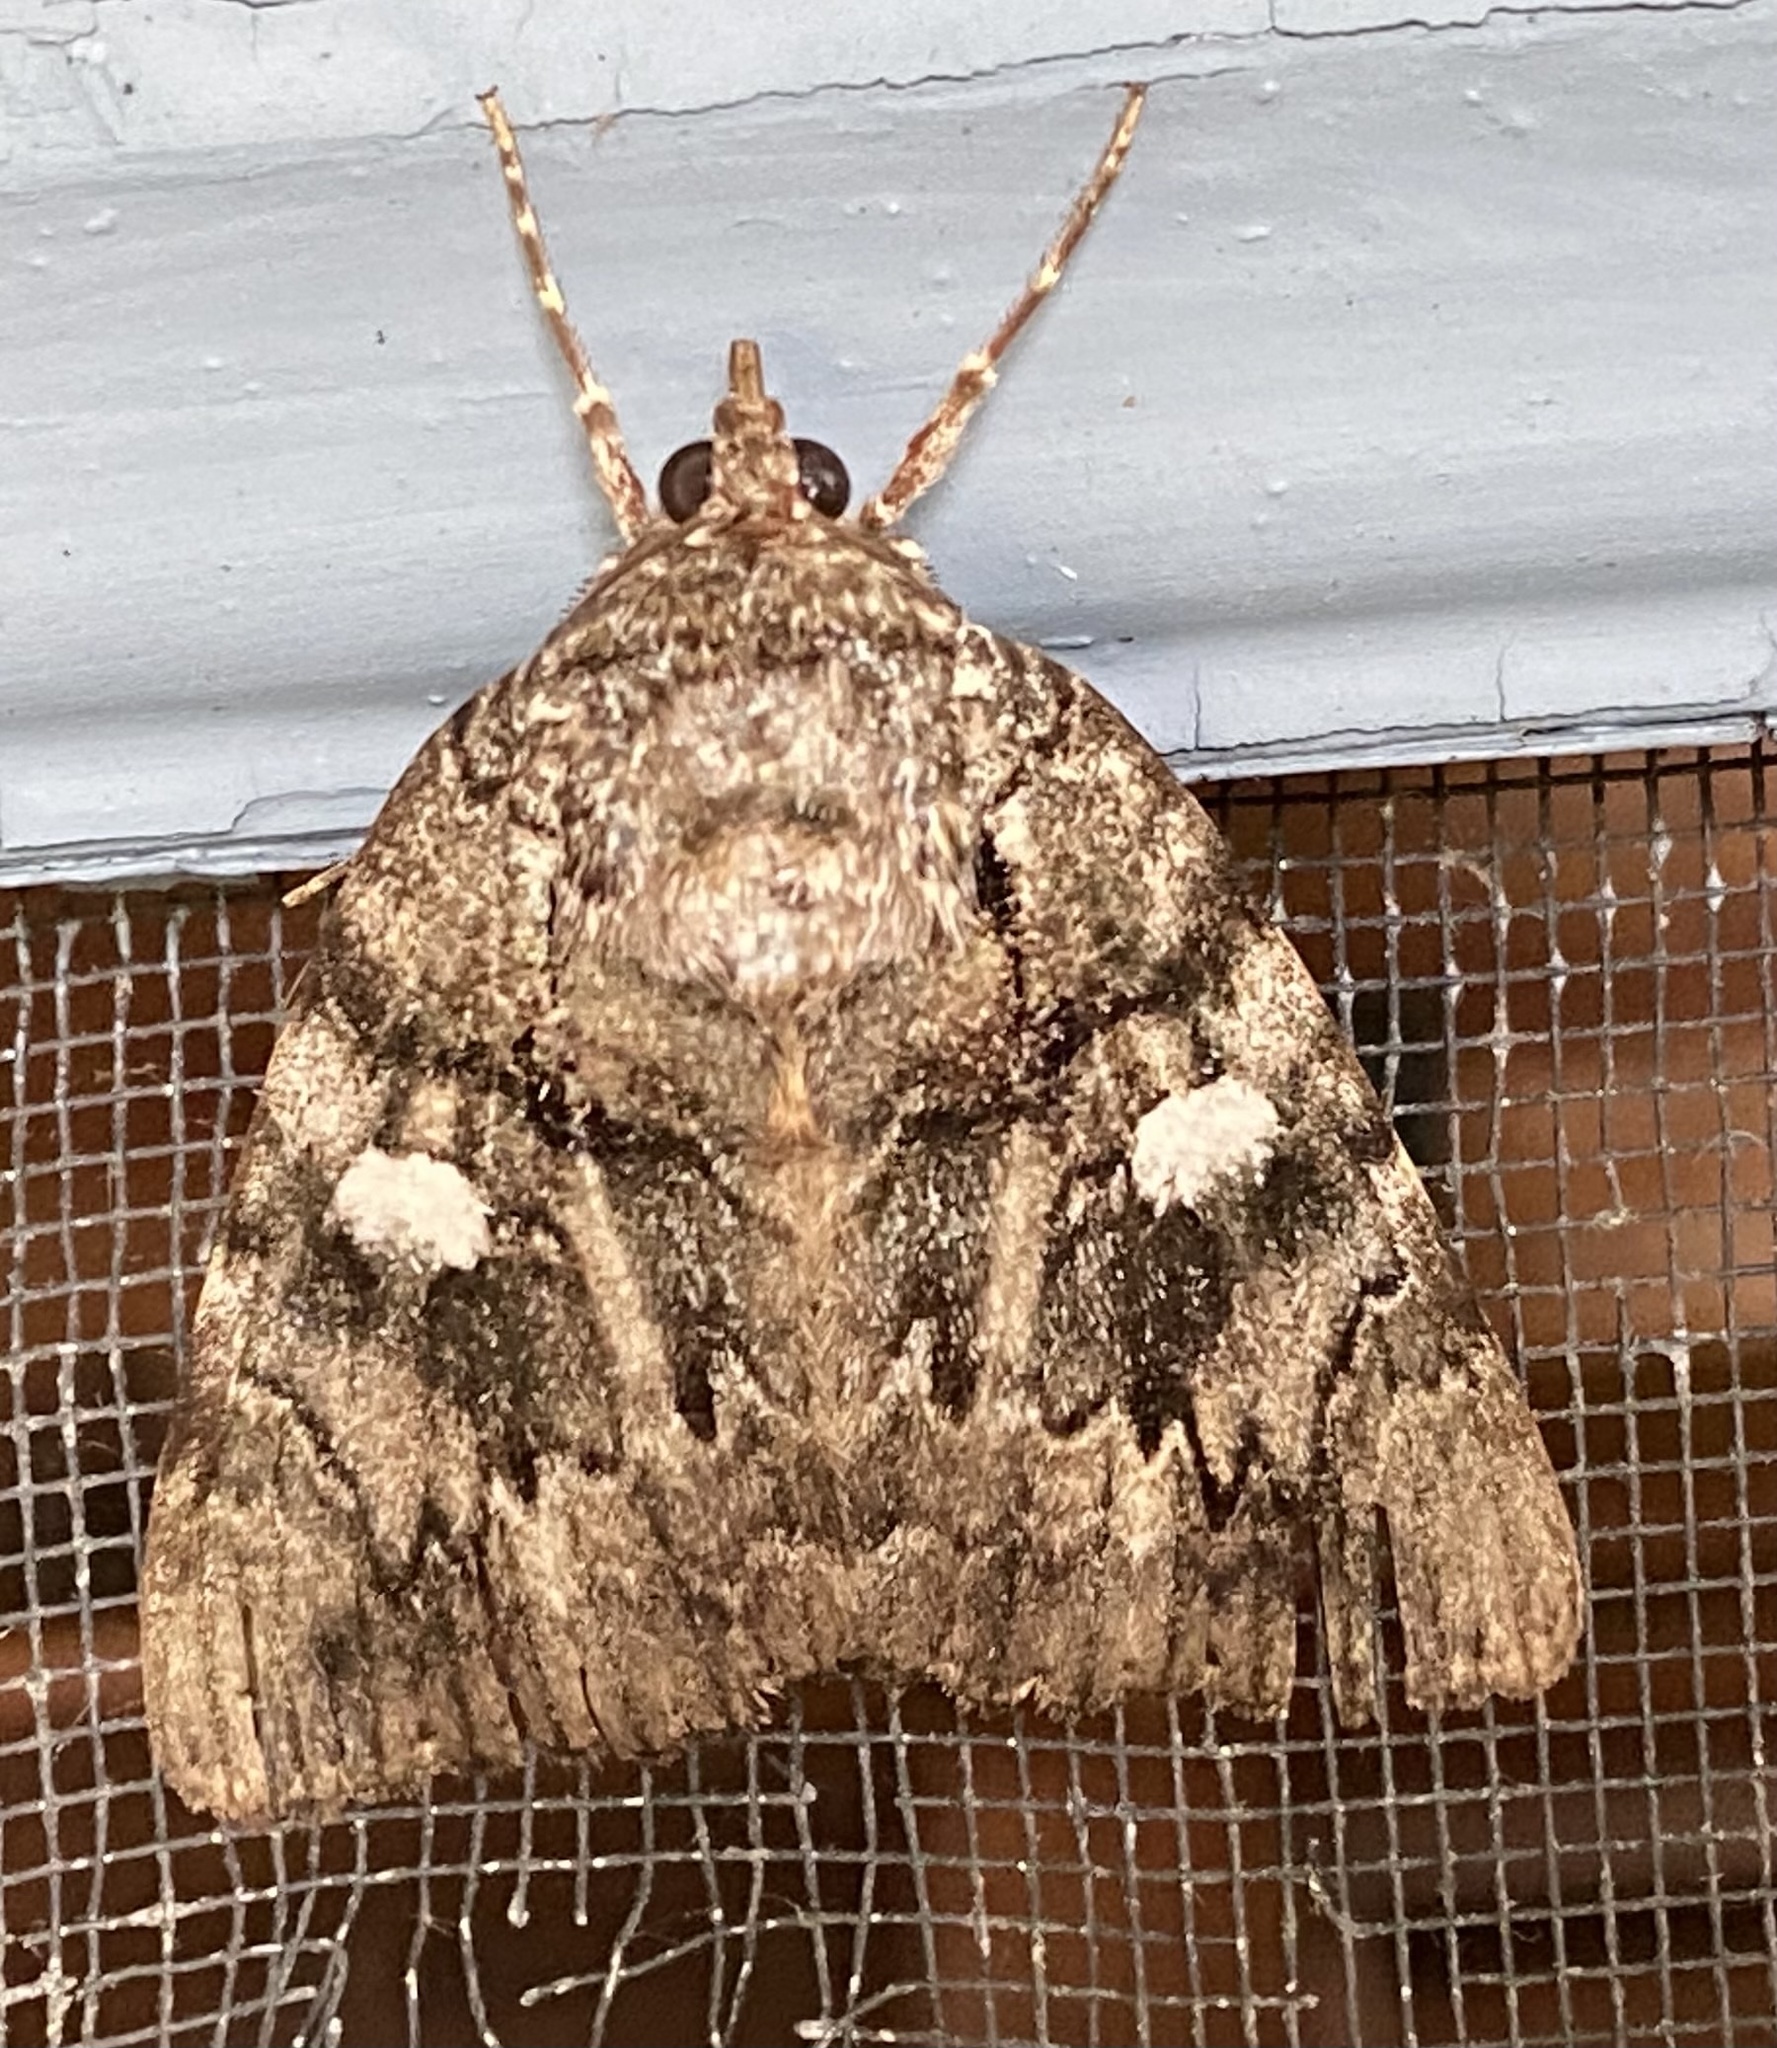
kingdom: Animalia
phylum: Arthropoda
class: Insecta
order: Lepidoptera
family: Erebidae
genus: Catocala
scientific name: Catocala ilia
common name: Ilia underwing
